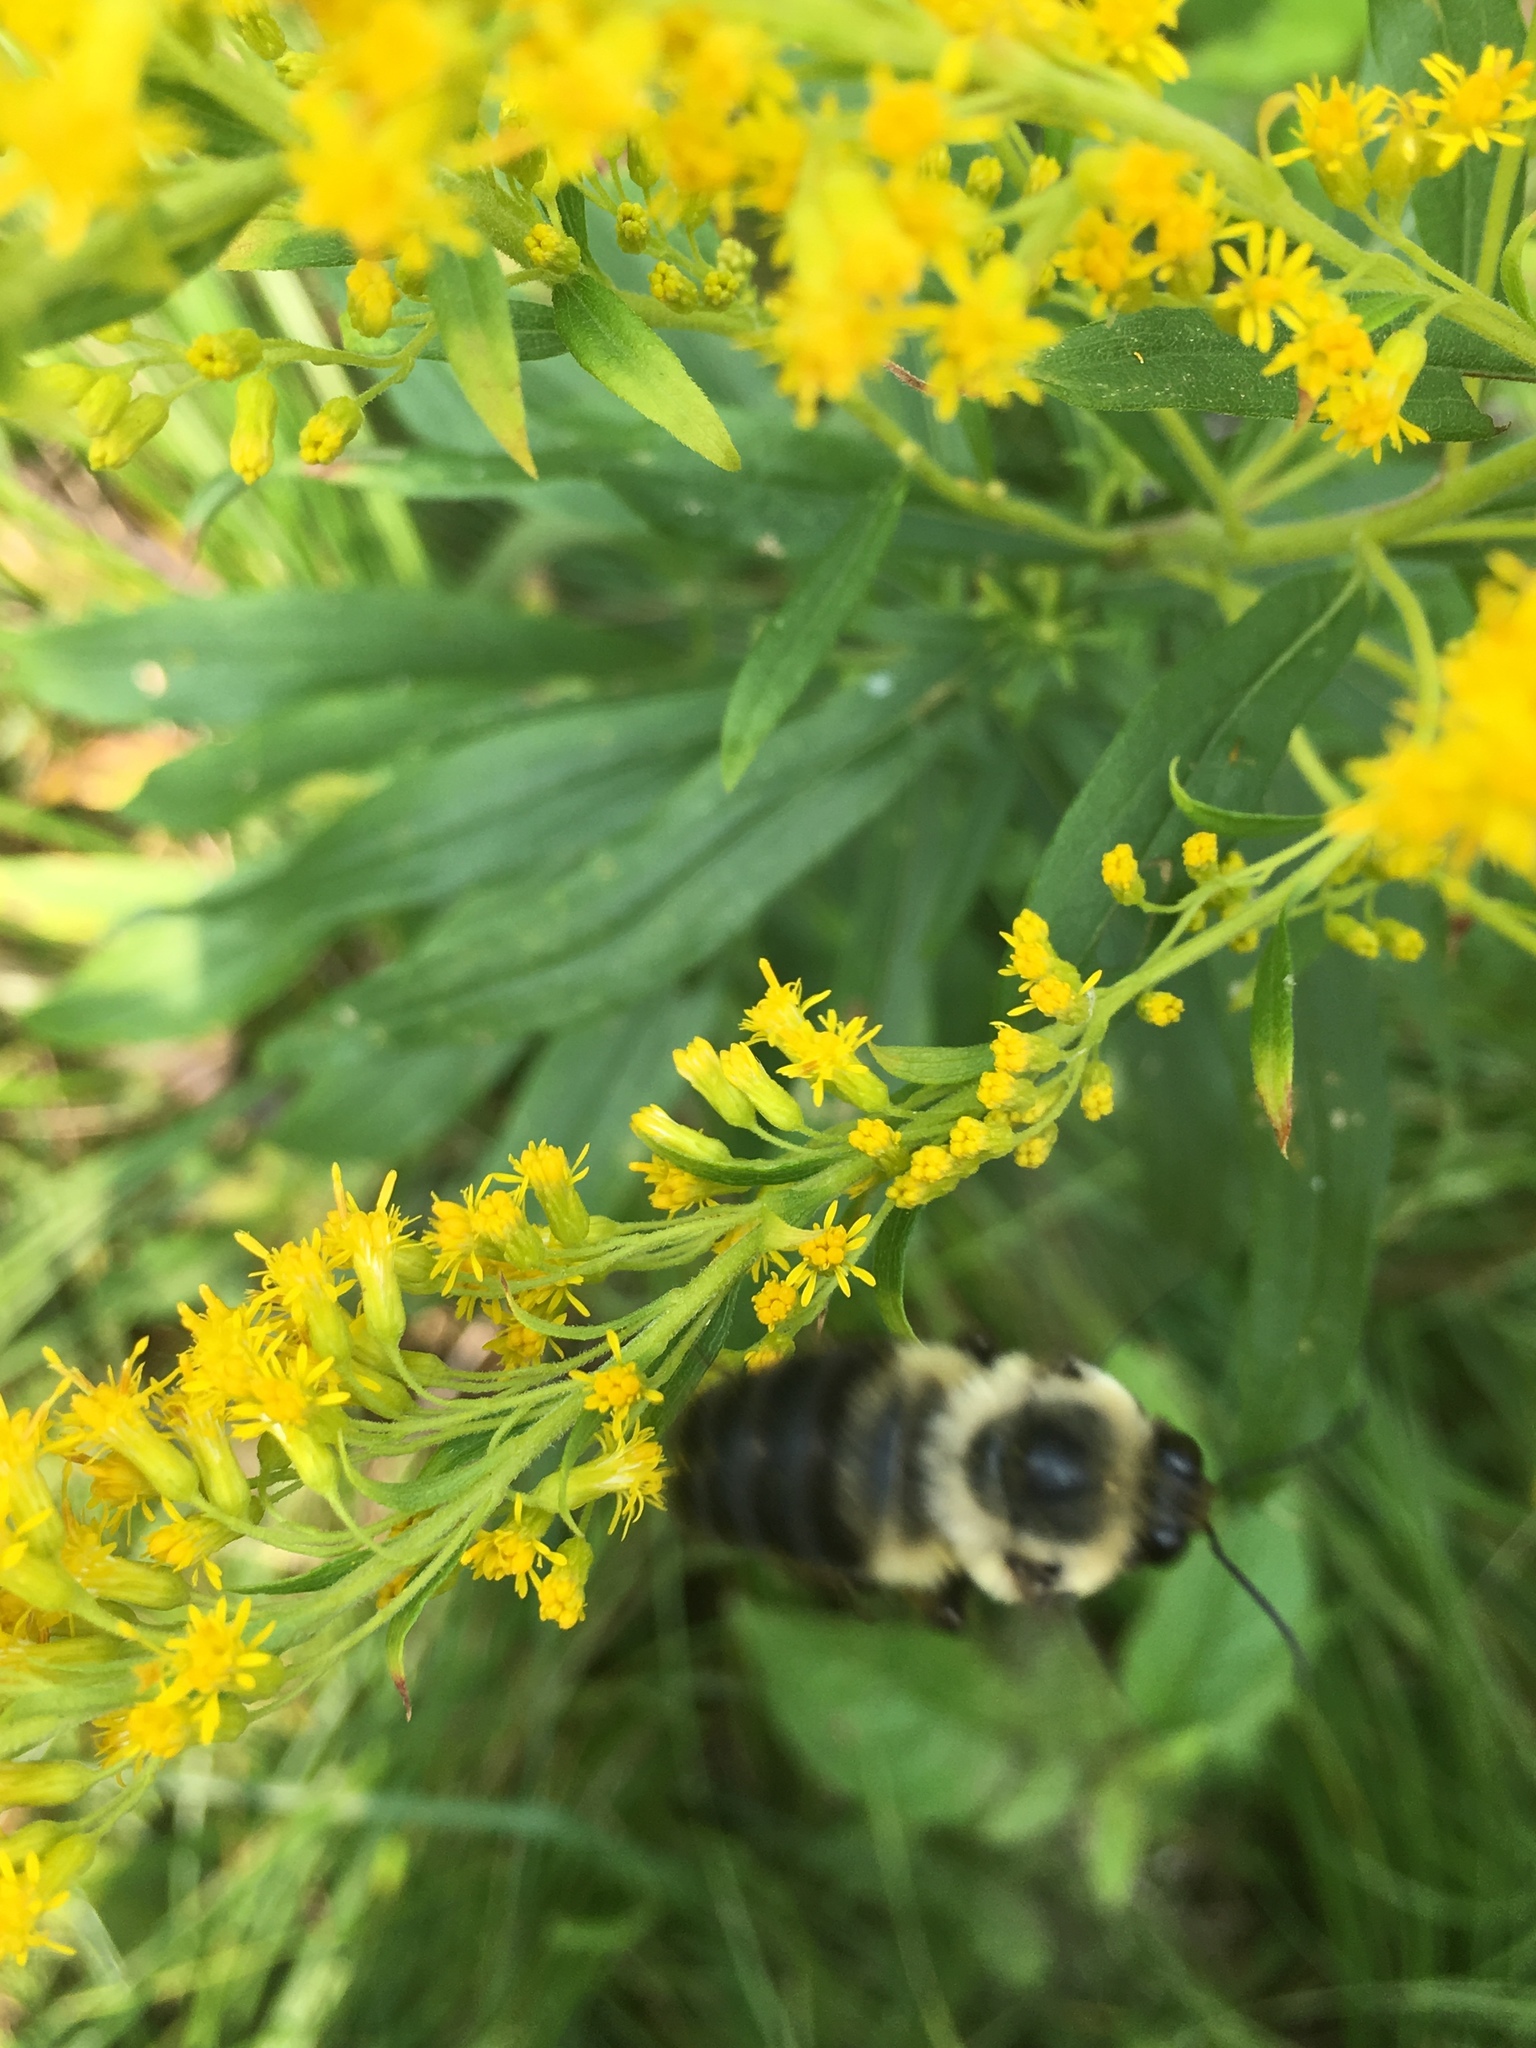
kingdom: Animalia
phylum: Arthropoda
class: Insecta
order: Hymenoptera
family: Apidae
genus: Bombus
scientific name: Bombus griseocollis
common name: Brown-belted bumble bee
